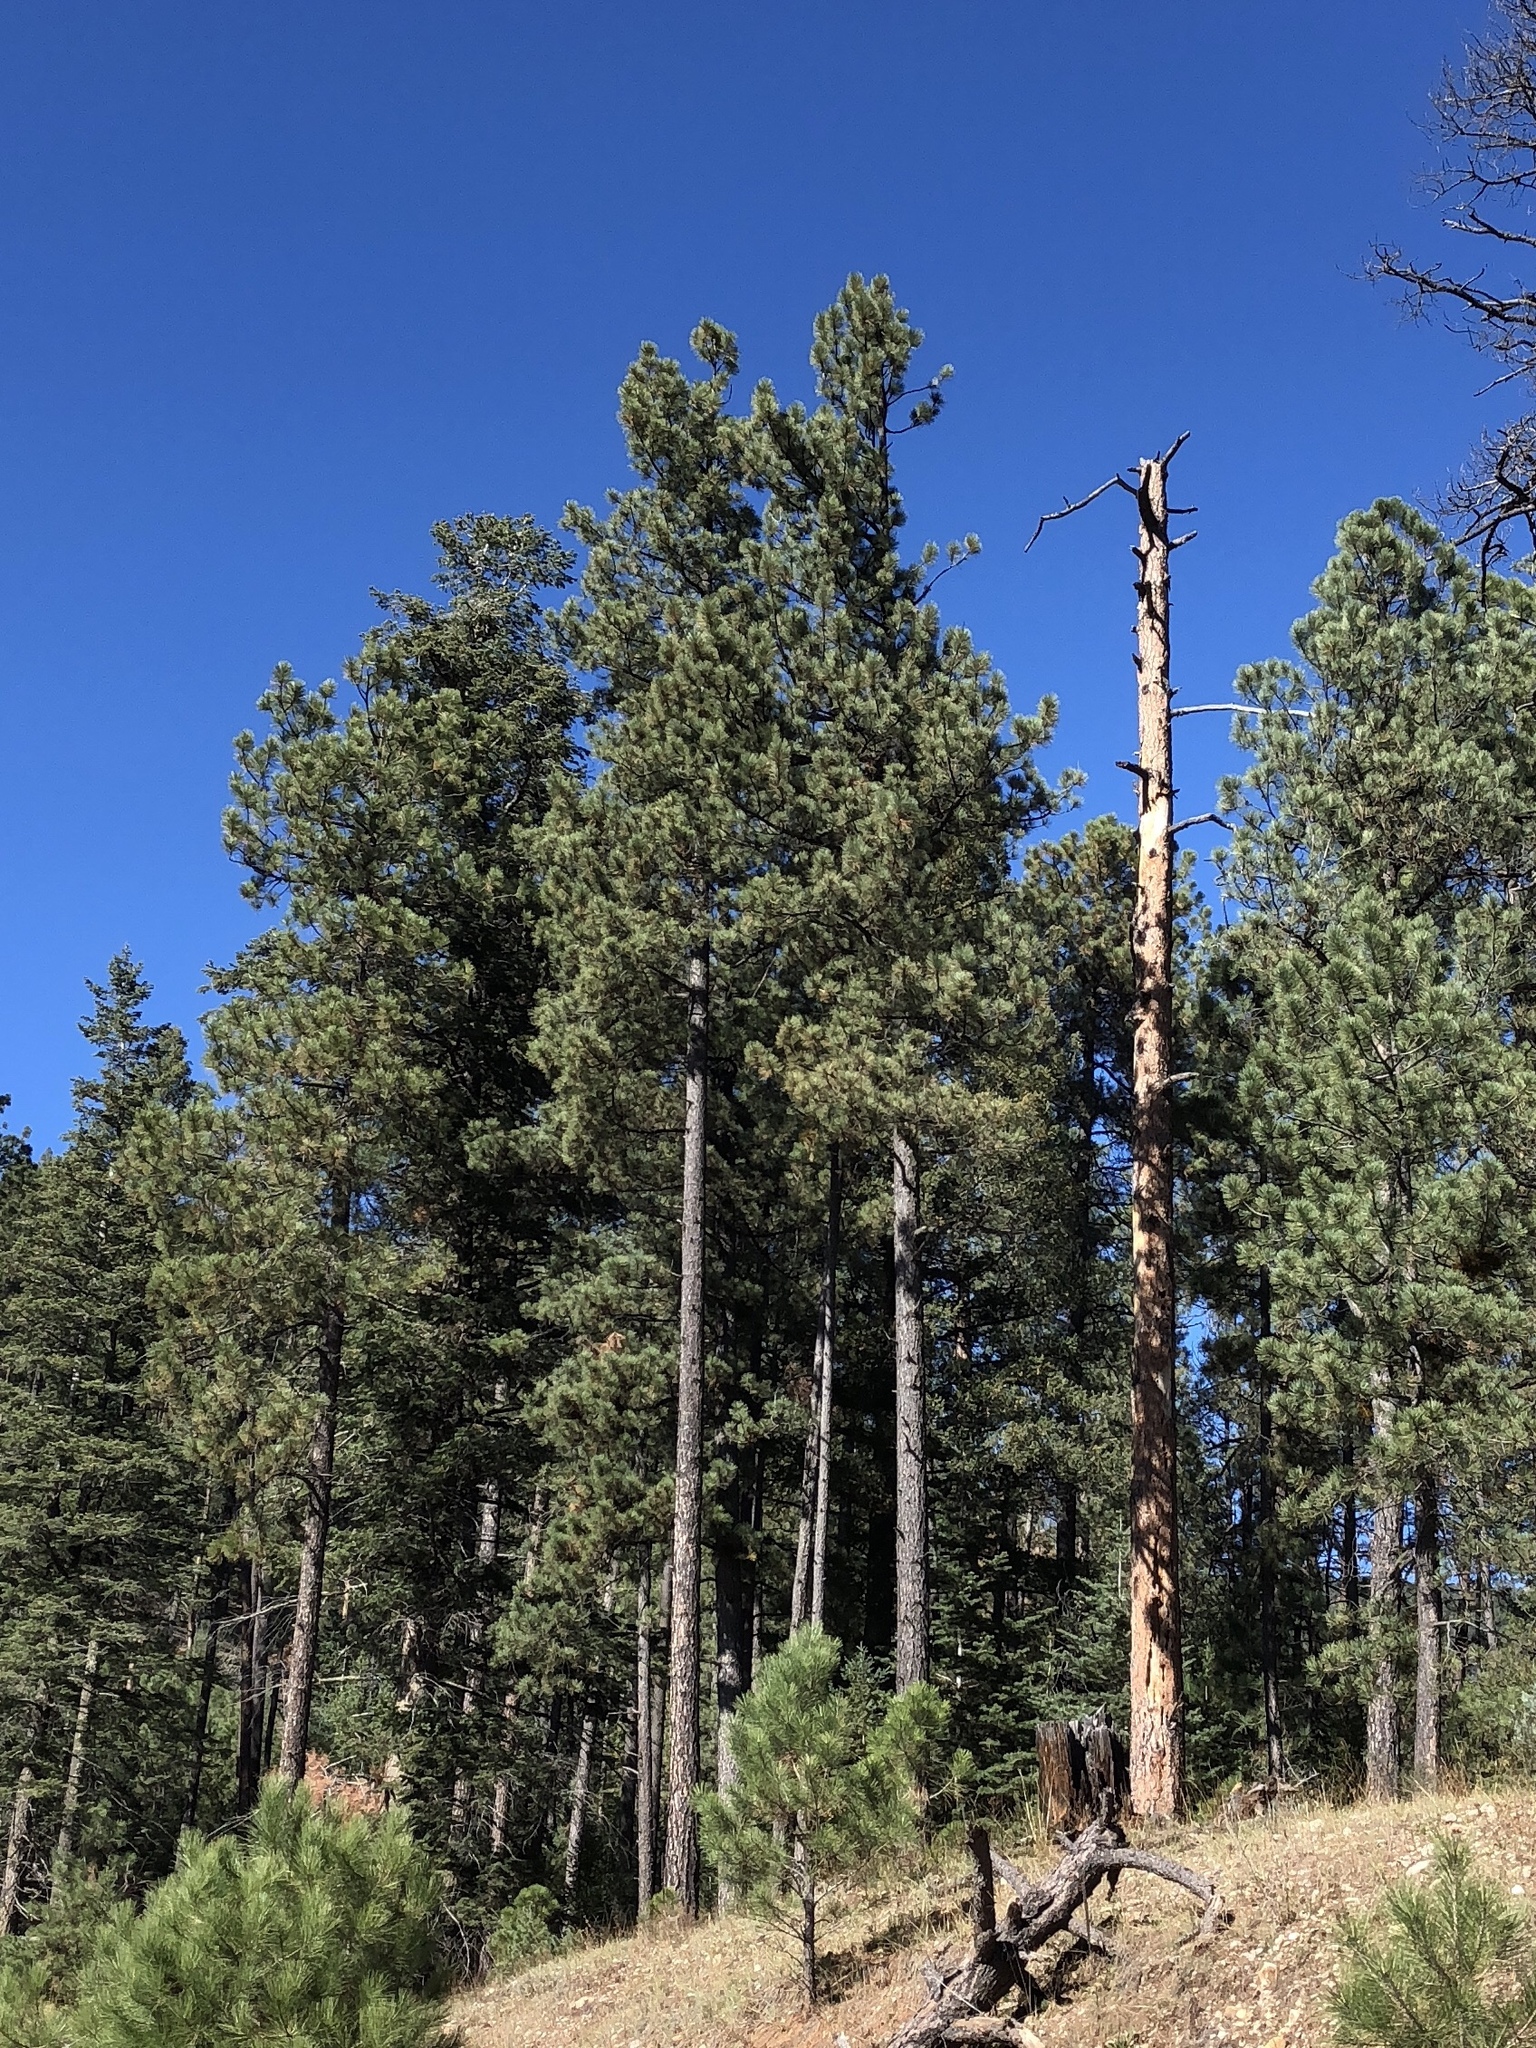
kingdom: Plantae
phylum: Tracheophyta
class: Pinopsida
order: Pinales
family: Pinaceae
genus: Pinus
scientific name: Pinus ponderosa
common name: Western yellow-pine
